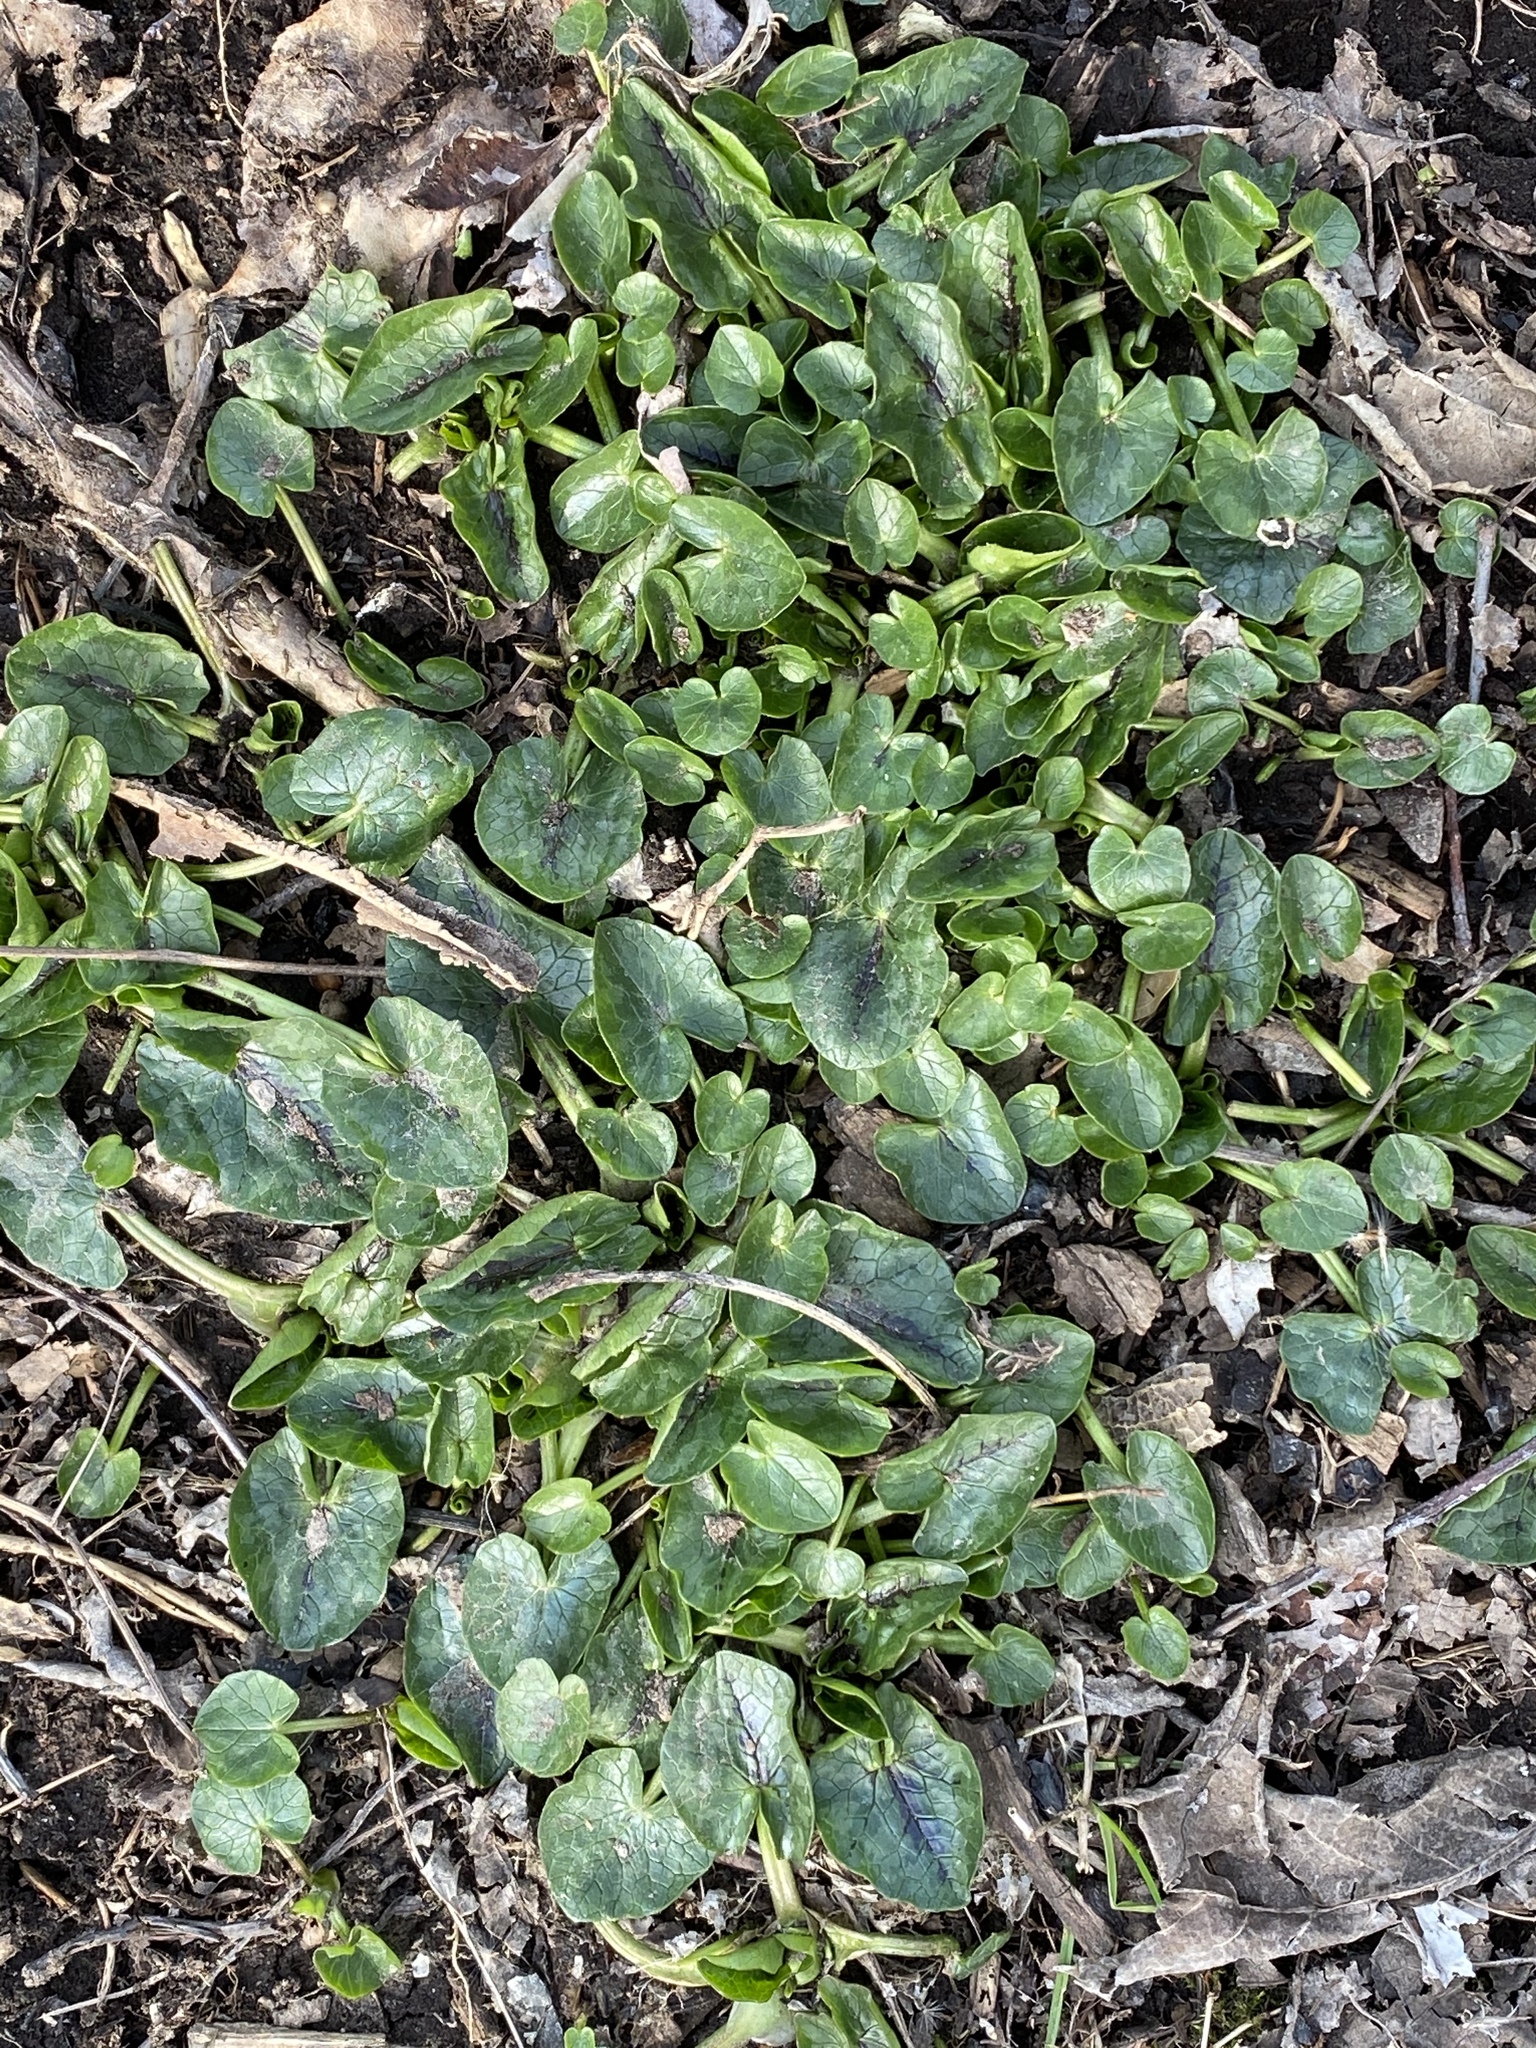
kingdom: Plantae
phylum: Tracheophyta
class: Magnoliopsida
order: Ranunculales
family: Ranunculaceae
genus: Ficaria
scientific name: Ficaria verna
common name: Lesser celandine
